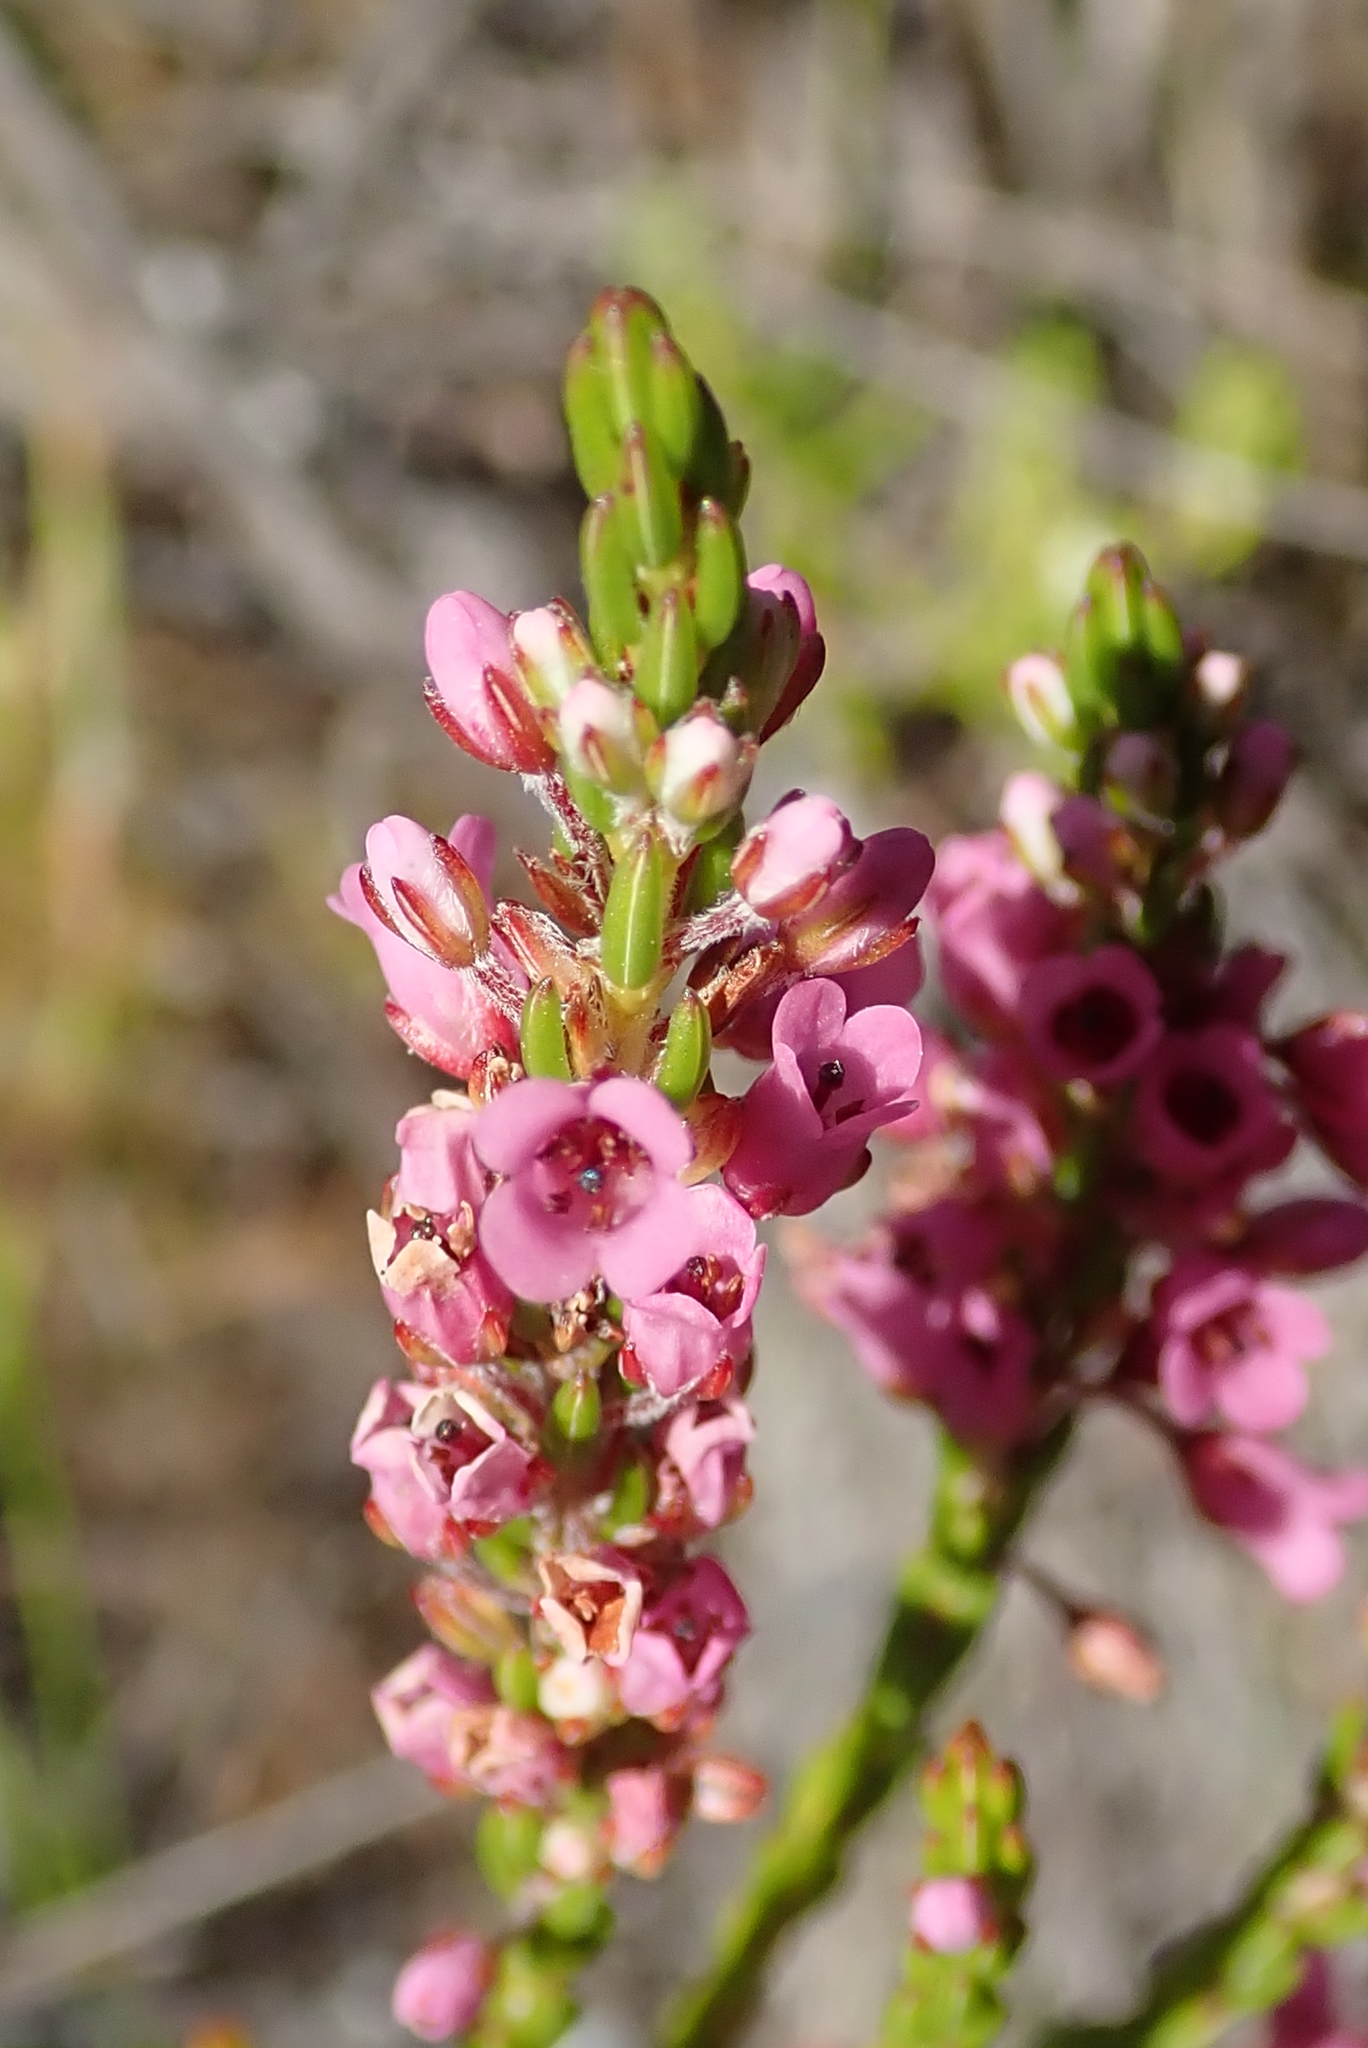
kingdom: Plantae
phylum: Tracheophyta
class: Magnoliopsida
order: Ericales
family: Ericaceae
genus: Erica
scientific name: Erica longiaristata
